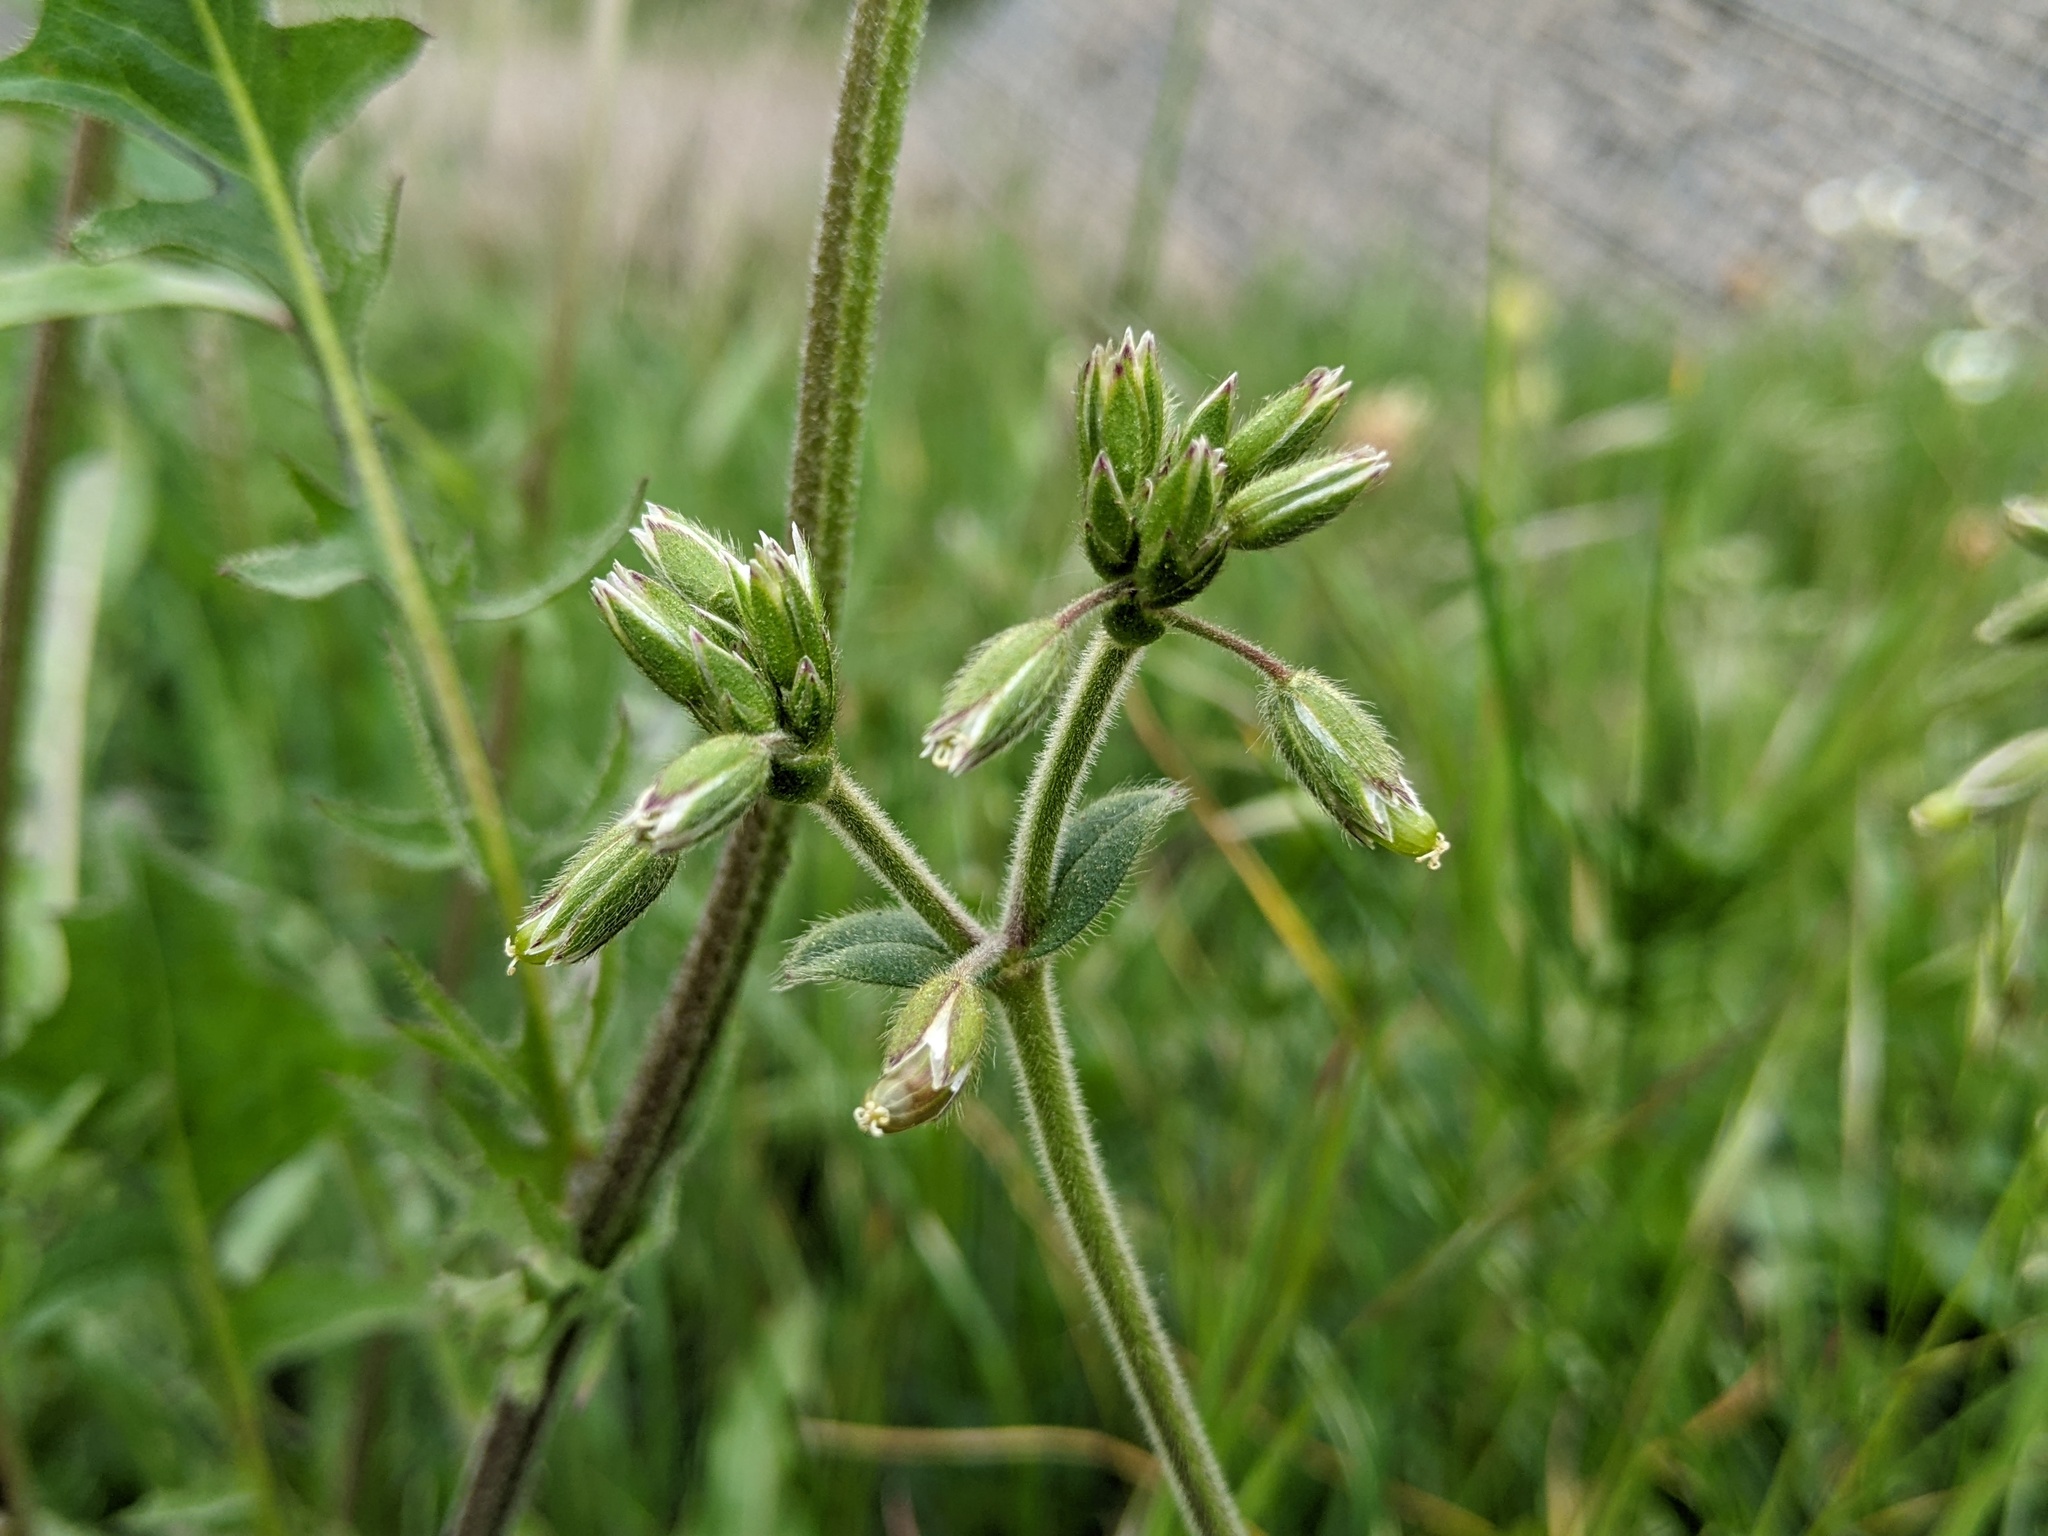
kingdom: Plantae
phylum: Tracheophyta
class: Magnoliopsida
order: Caryophyllales
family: Caryophyllaceae
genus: Cerastium
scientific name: Cerastium fontanum
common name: Common mouse-ear
